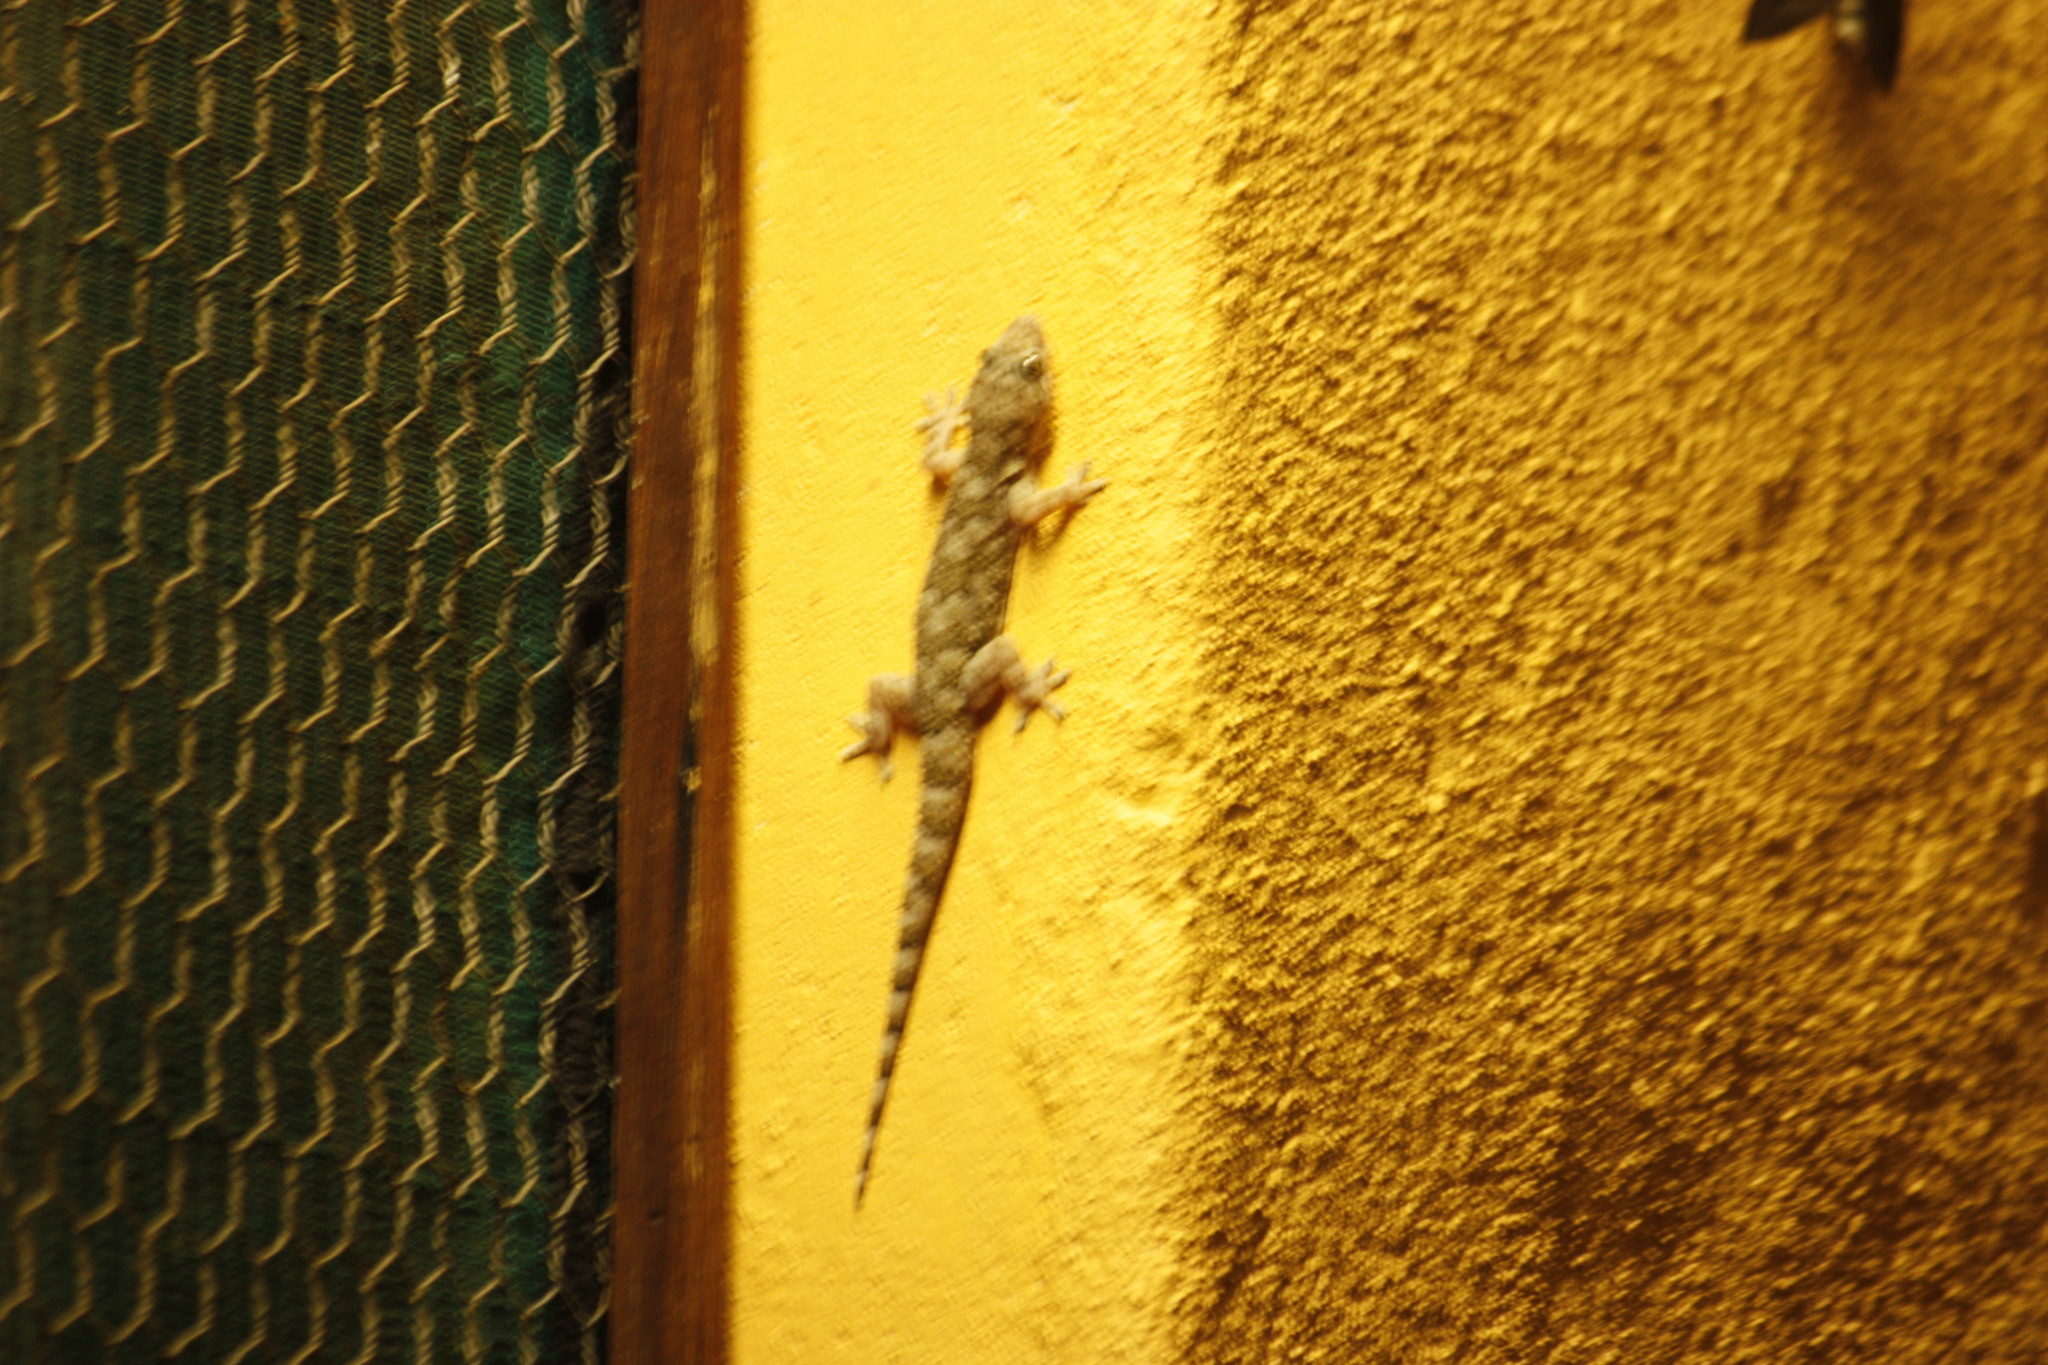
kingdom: Animalia
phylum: Chordata
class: Squamata
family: Gekkonidae
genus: Hemidactylus
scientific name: Hemidactylus mabouia
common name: House gecko
